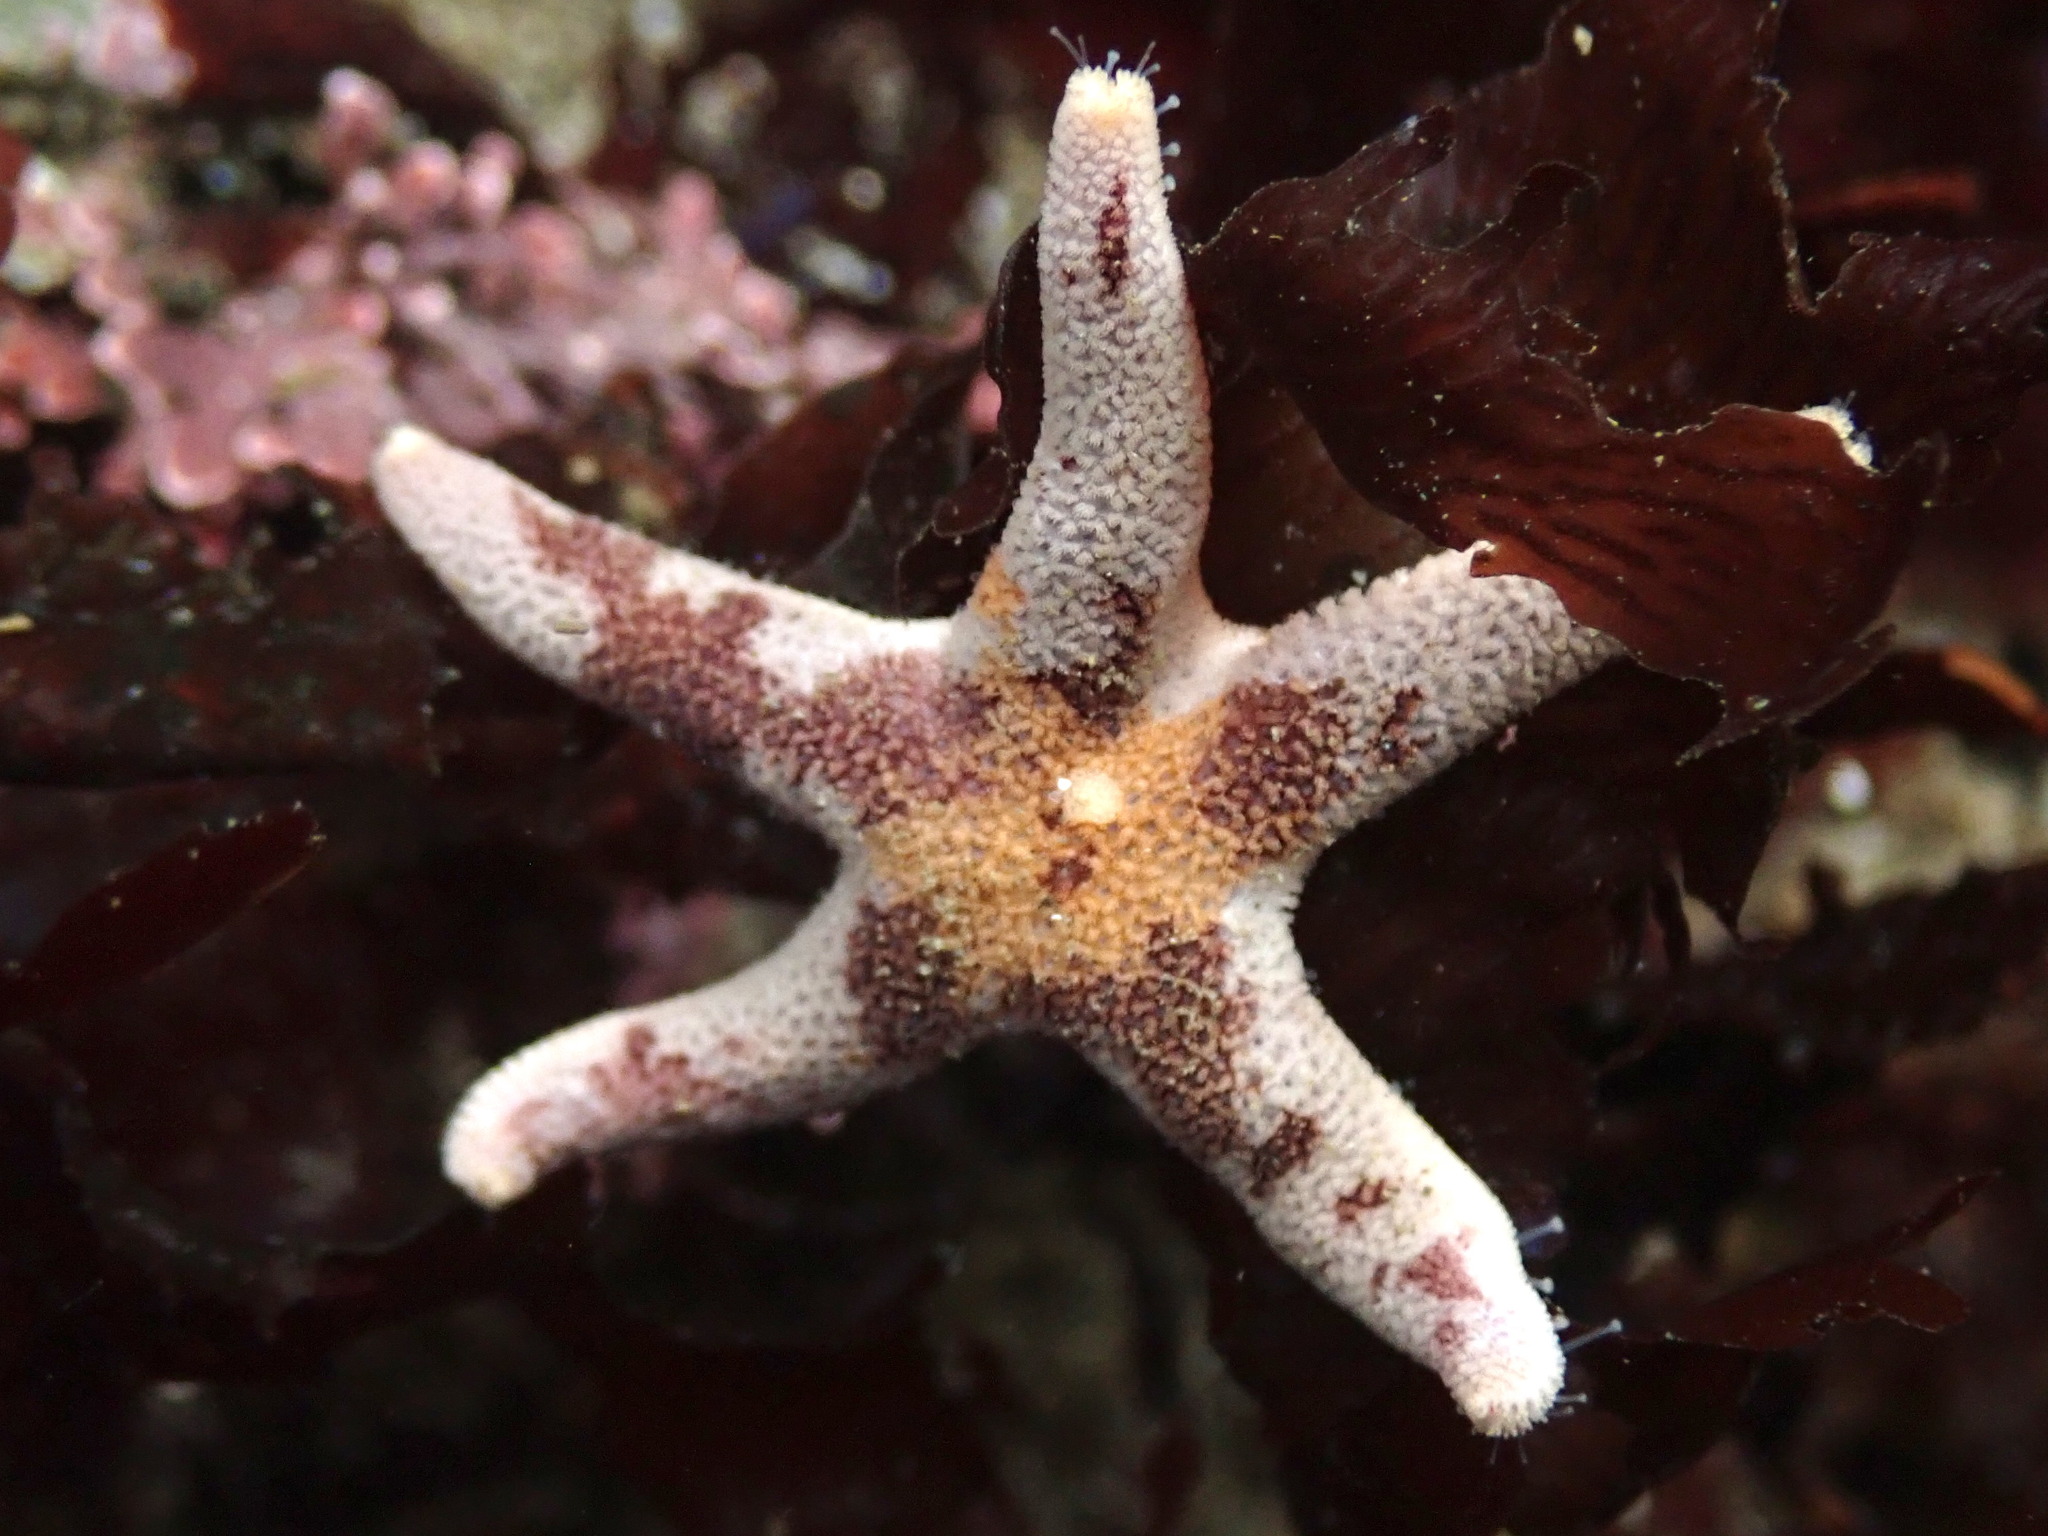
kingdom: Animalia
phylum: Echinodermata
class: Asteroidea
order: Spinulosida
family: Echinasteridae
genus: Henricia
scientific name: Henricia pumila
